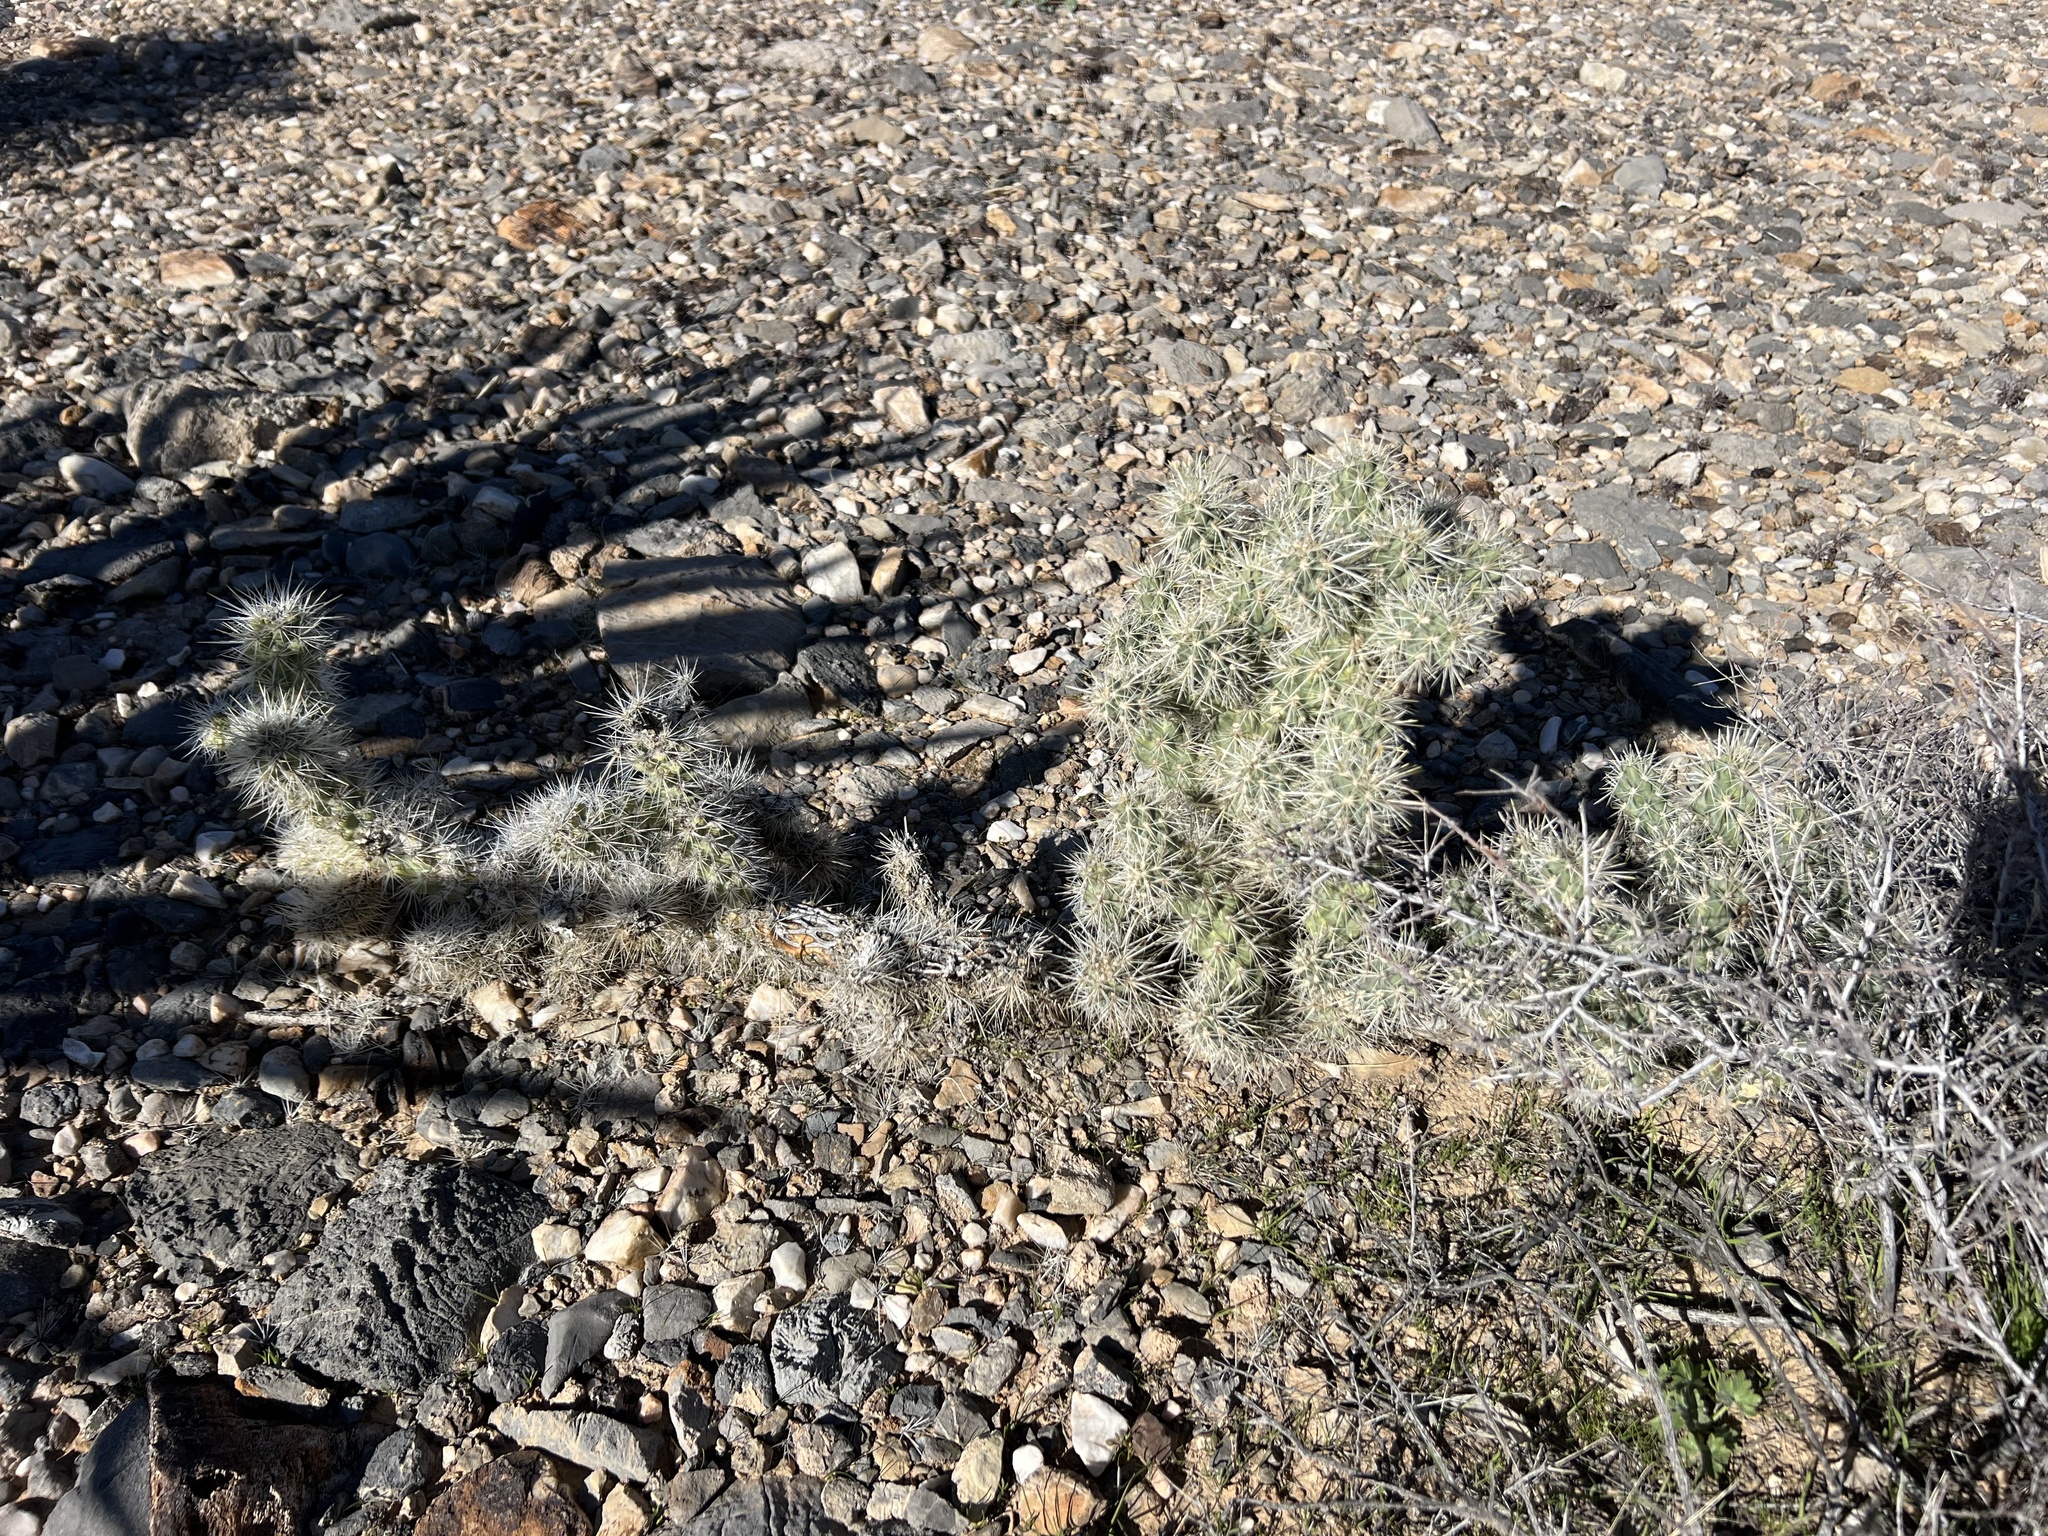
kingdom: Plantae
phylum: Tracheophyta
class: Magnoliopsida
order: Caryophyllales
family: Cactaceae
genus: Cylindropuntia
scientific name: Cylindropuntia echinocarpa
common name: Ground cholla
